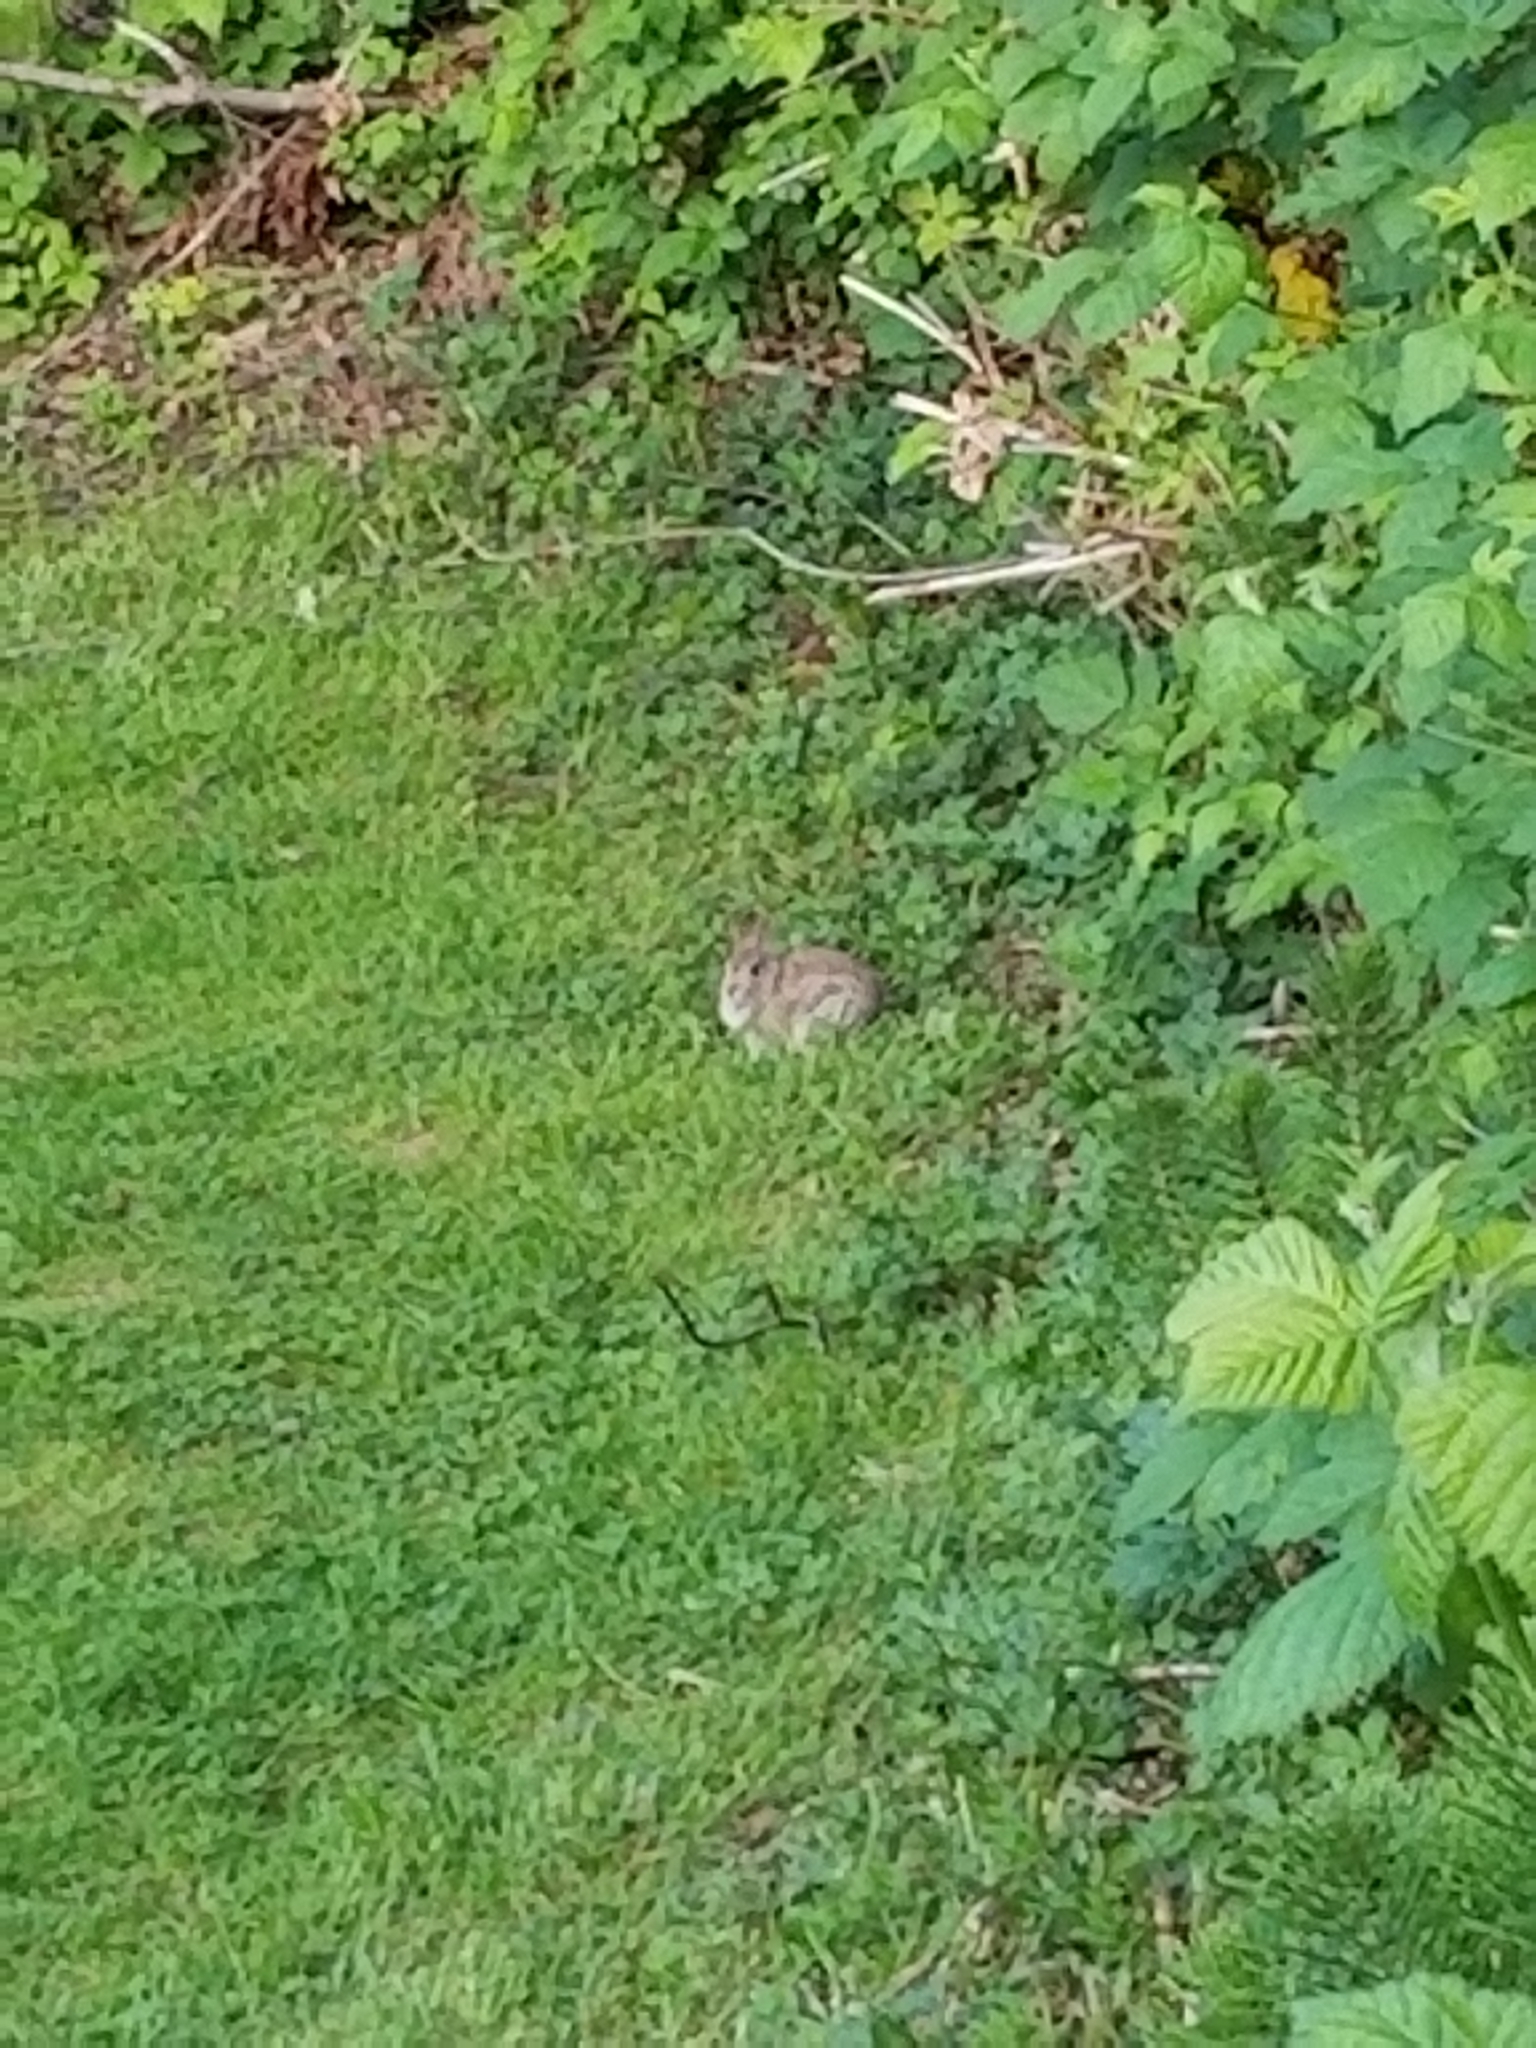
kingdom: Animalia
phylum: Chordata
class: Mammalia
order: Lagomorpha
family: Leporidae
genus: Sylvilagus
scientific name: Sylvilagus floridanus
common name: Eastern cottontail
